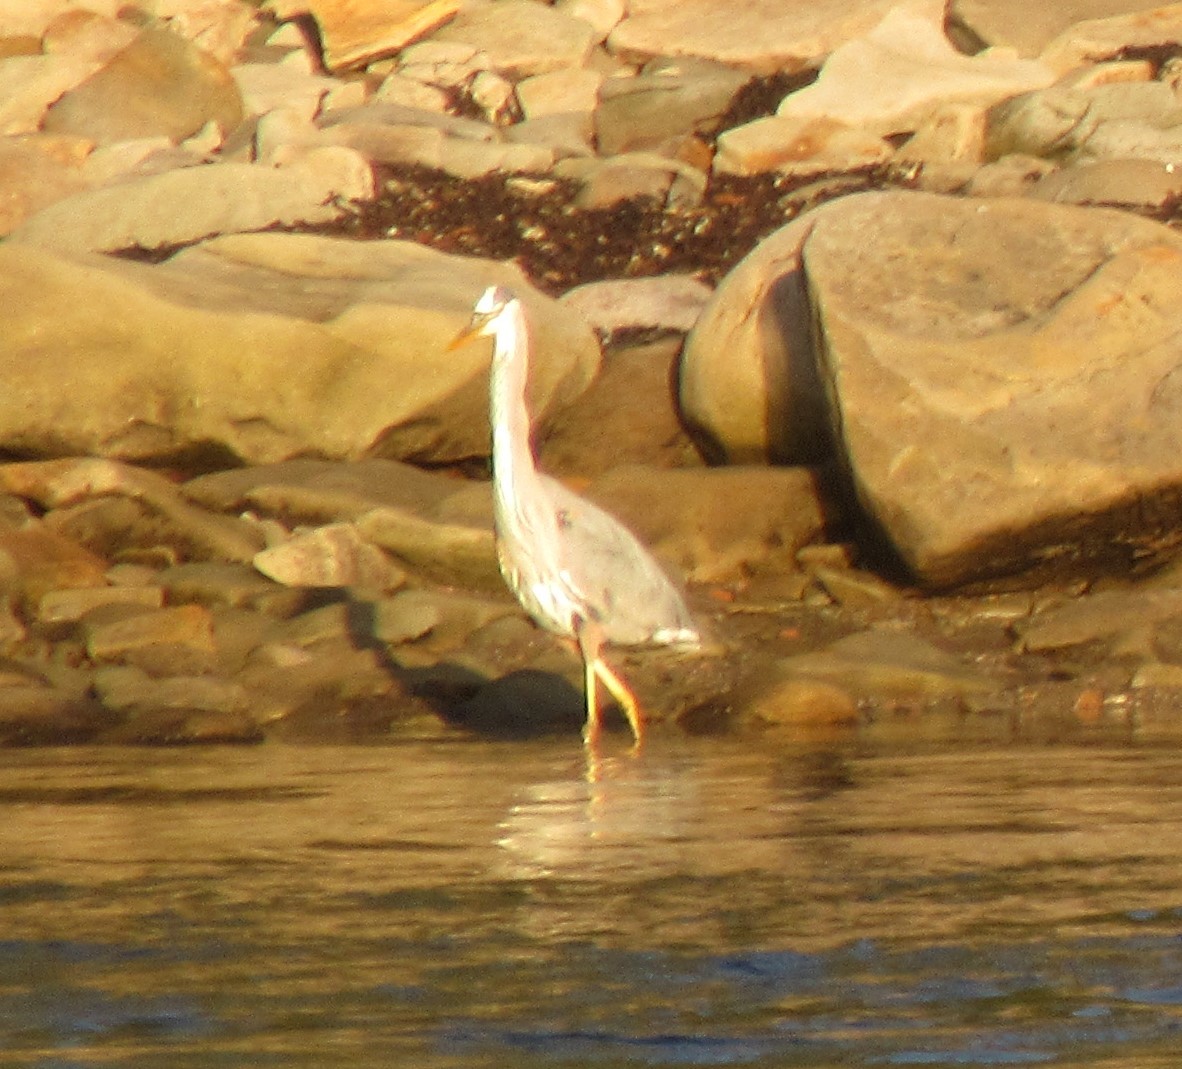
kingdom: Animalia
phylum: Chordata
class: Aves
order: Pelecaniformes
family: Ardeidae
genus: Ardea
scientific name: Ardea herodias
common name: Great blue heron
